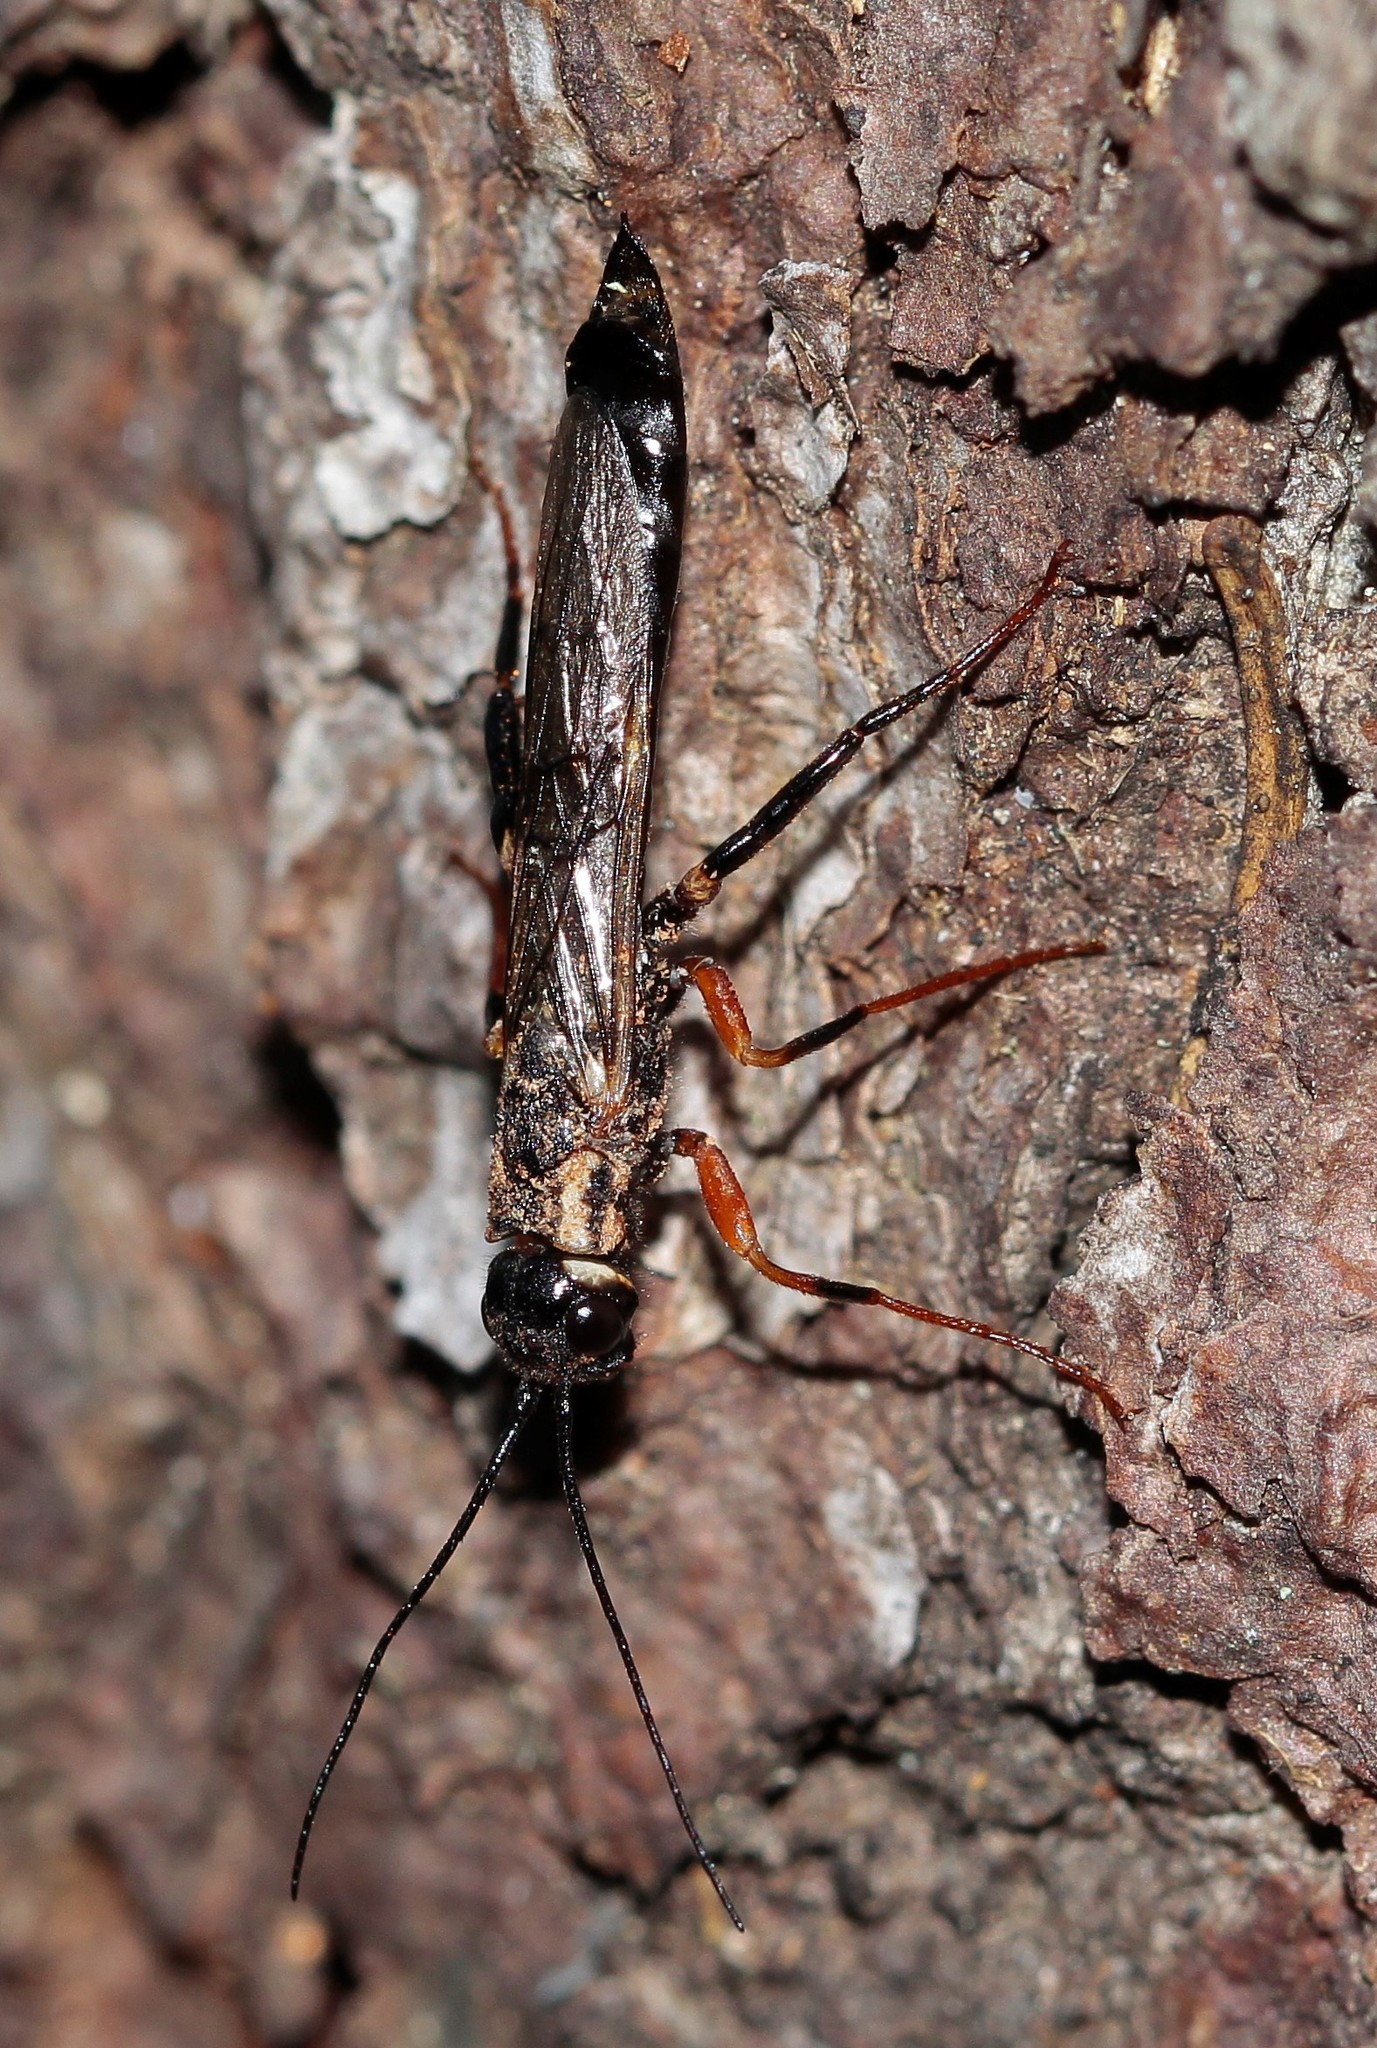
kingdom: Animalia
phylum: Arthropoda
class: Insecta
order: Hymenoptera
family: Siricidae
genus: Xeris
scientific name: Xeris spectrum
